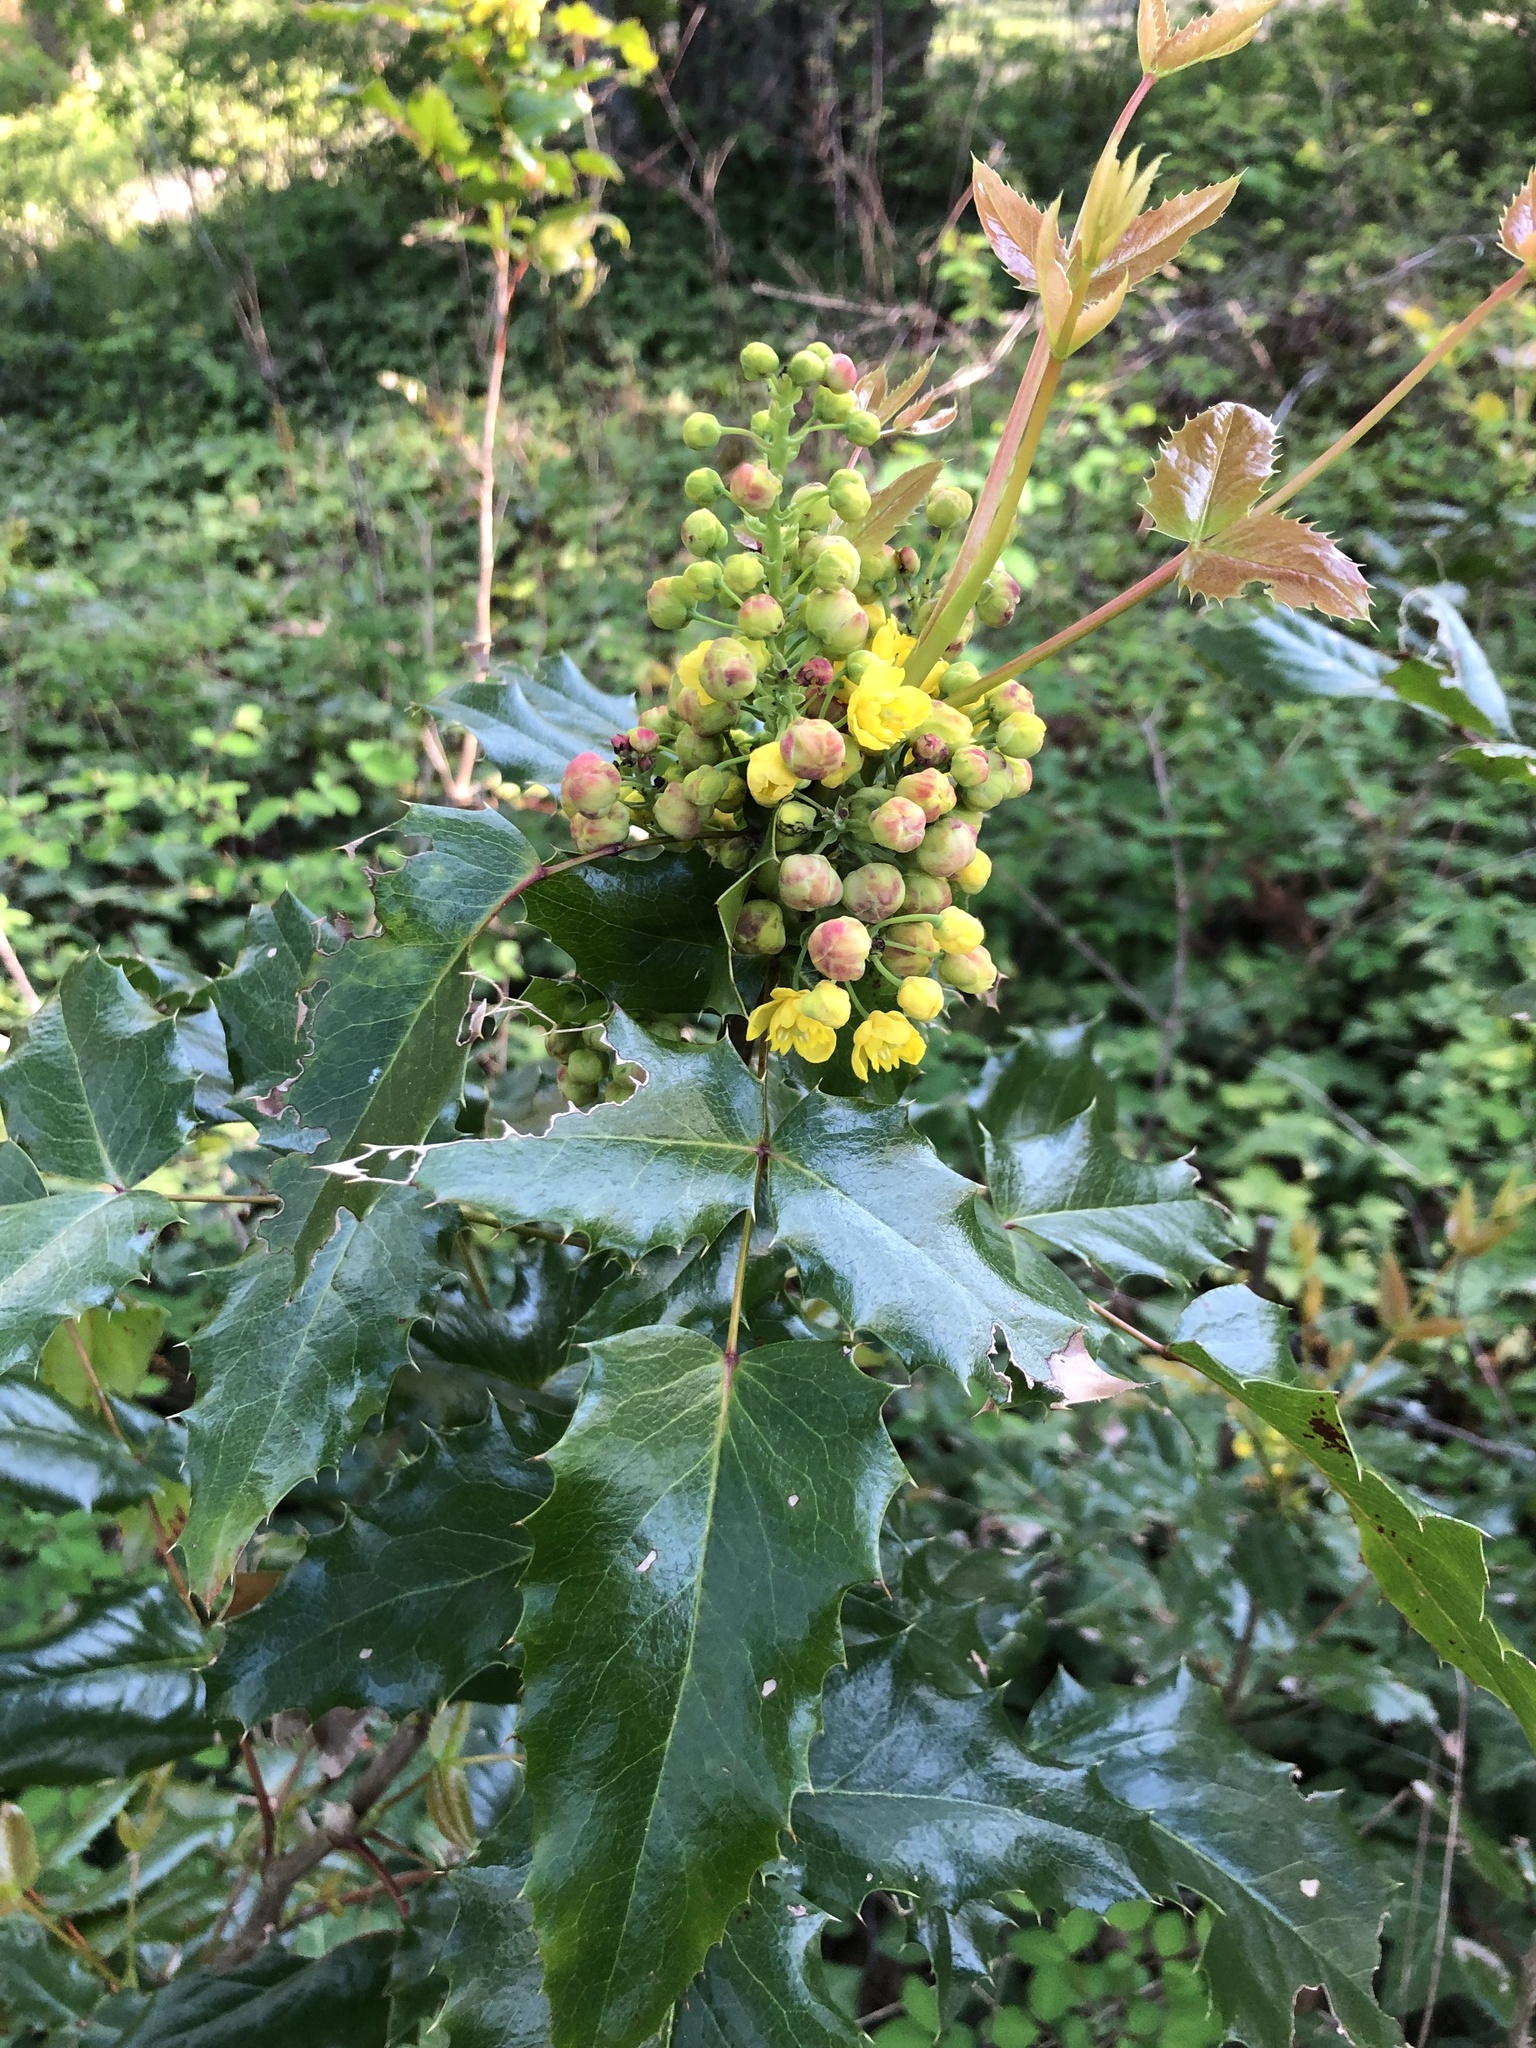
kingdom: Plantae
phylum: Tracheophyta
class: Magnoliopsida
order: Ranunculales
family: Berberidaceae
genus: Mahonia
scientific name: Mahonia aquifolium
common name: Oregon-grape
